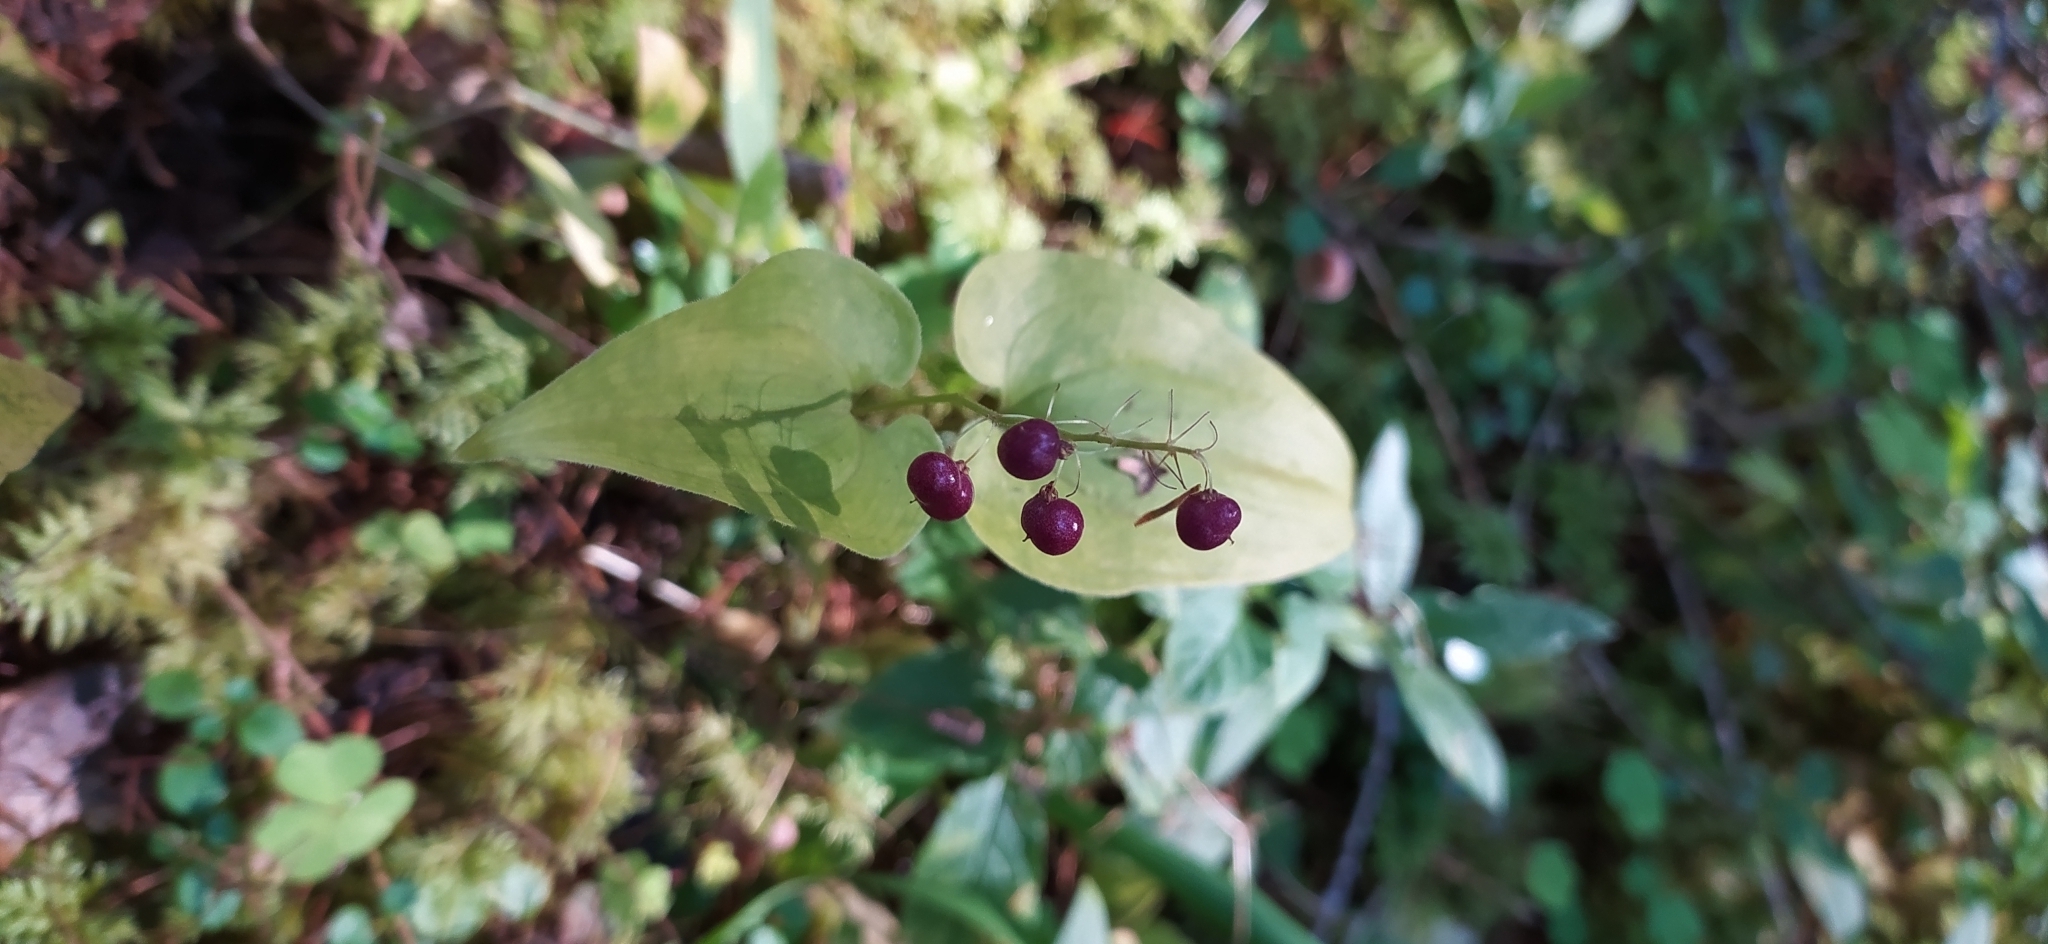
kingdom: Plantae
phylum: Tracheophyta
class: Liliopsida
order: Asparagales
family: Asparagaceae
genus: Maianthemum
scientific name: Maianthemum bifolium
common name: May lily
